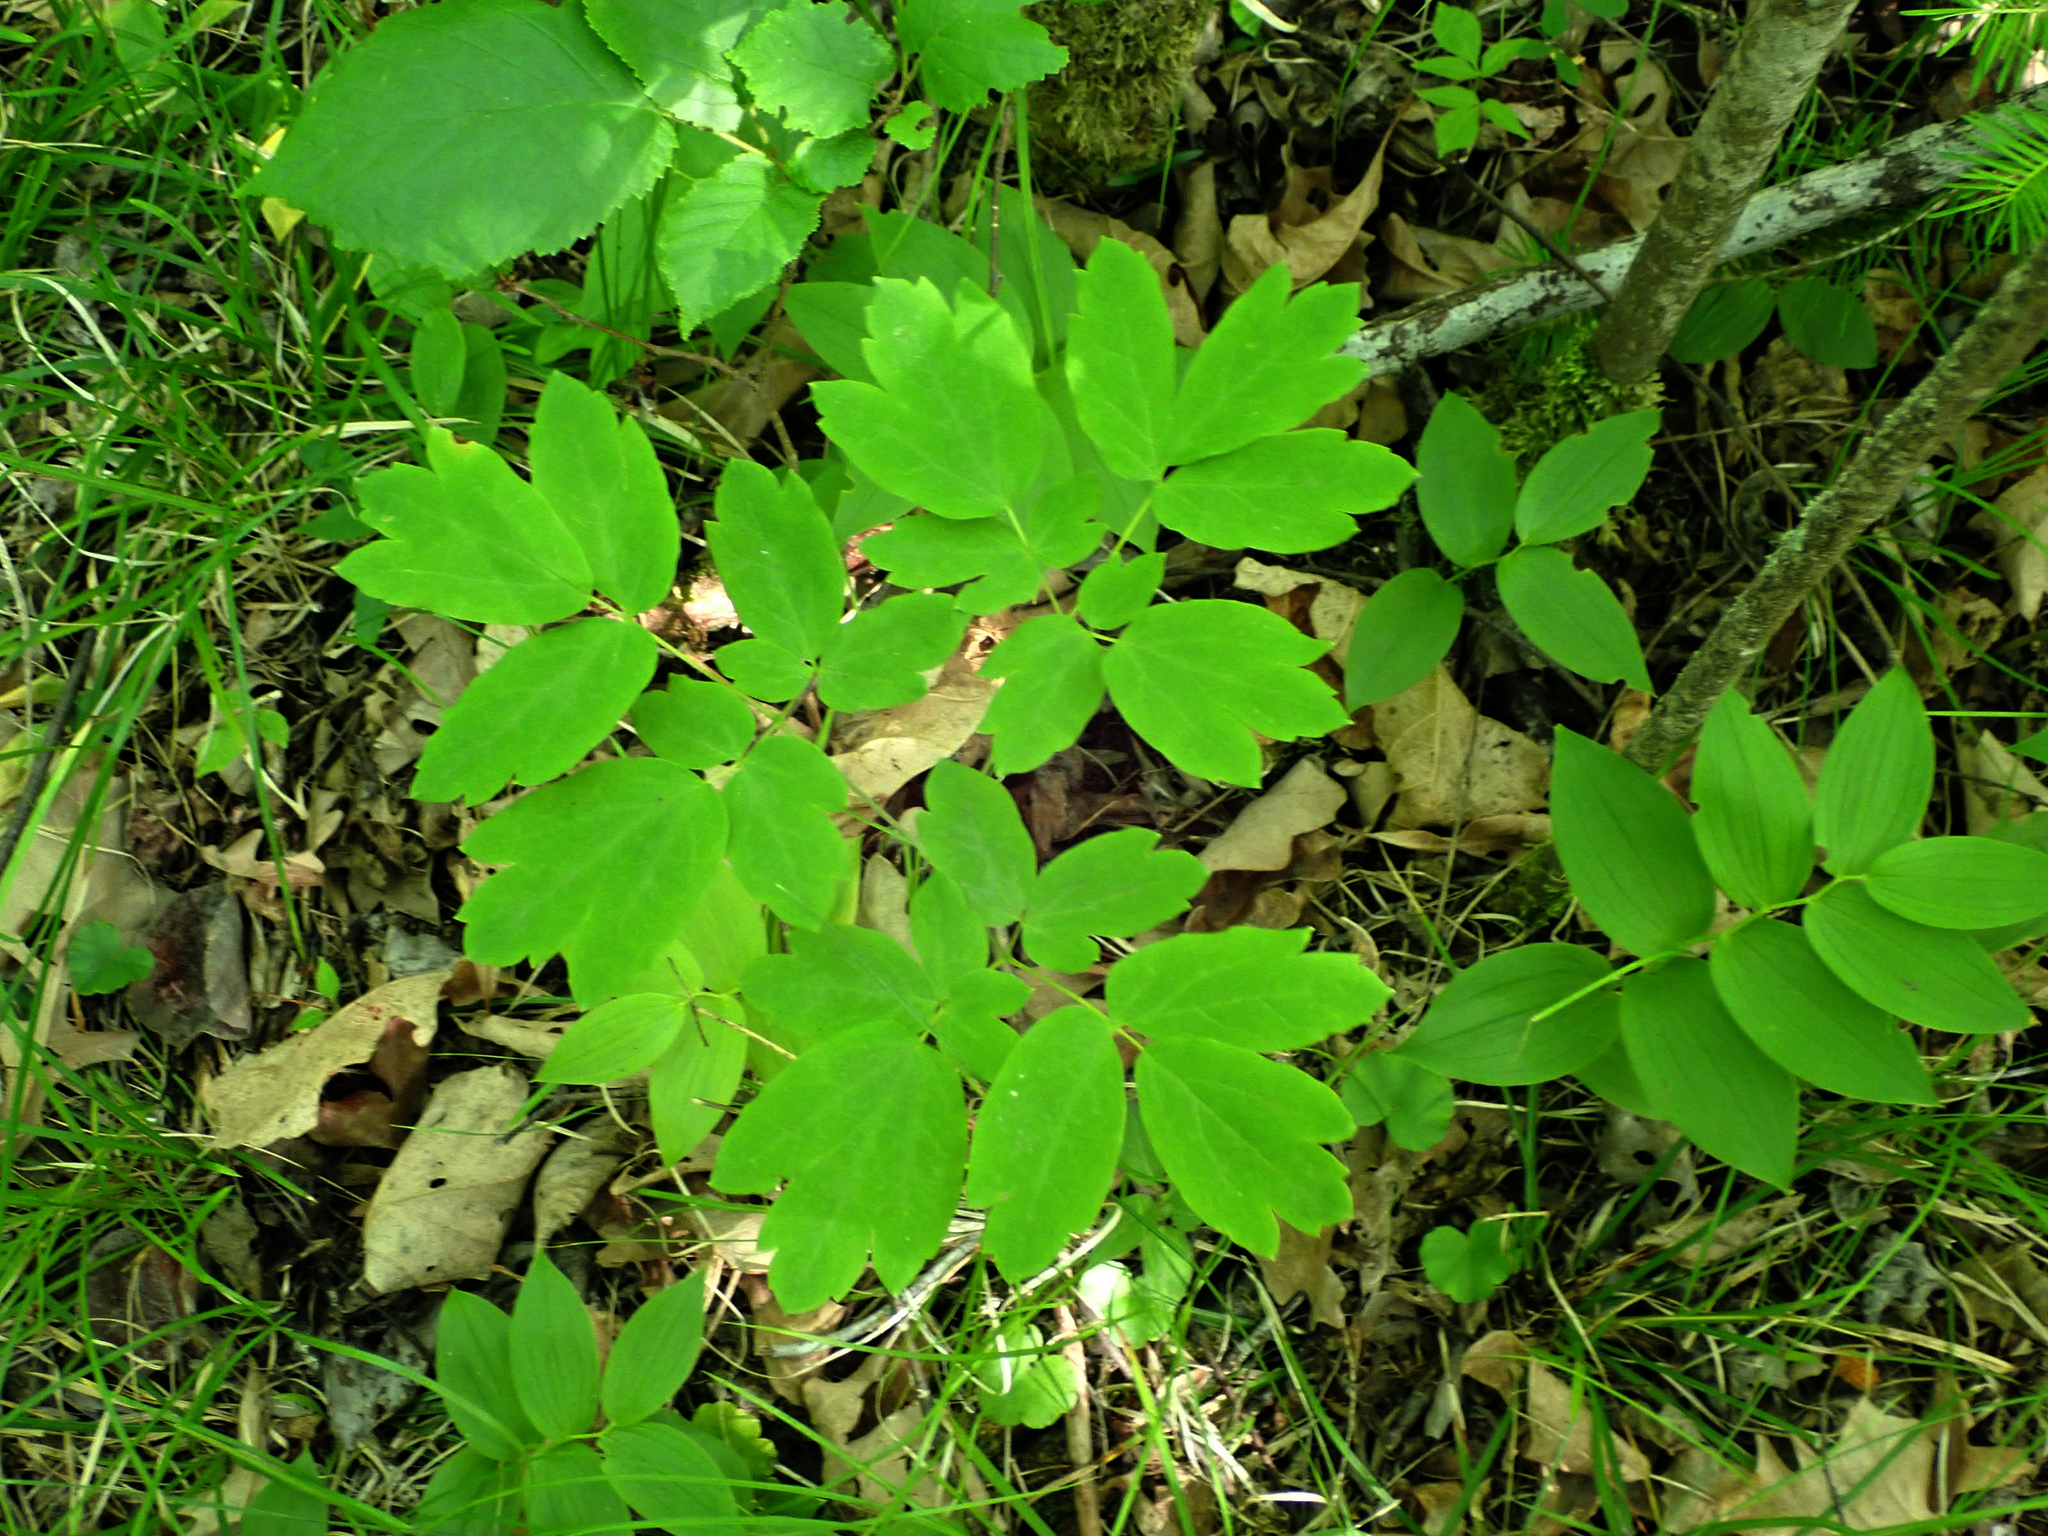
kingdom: Plantae
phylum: Tracheophyta
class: Magnoliopsida
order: Ranunculales
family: Berberidaceae
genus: Caulophyllum
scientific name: Caulophyllum thalictroides
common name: Blue cohosh
